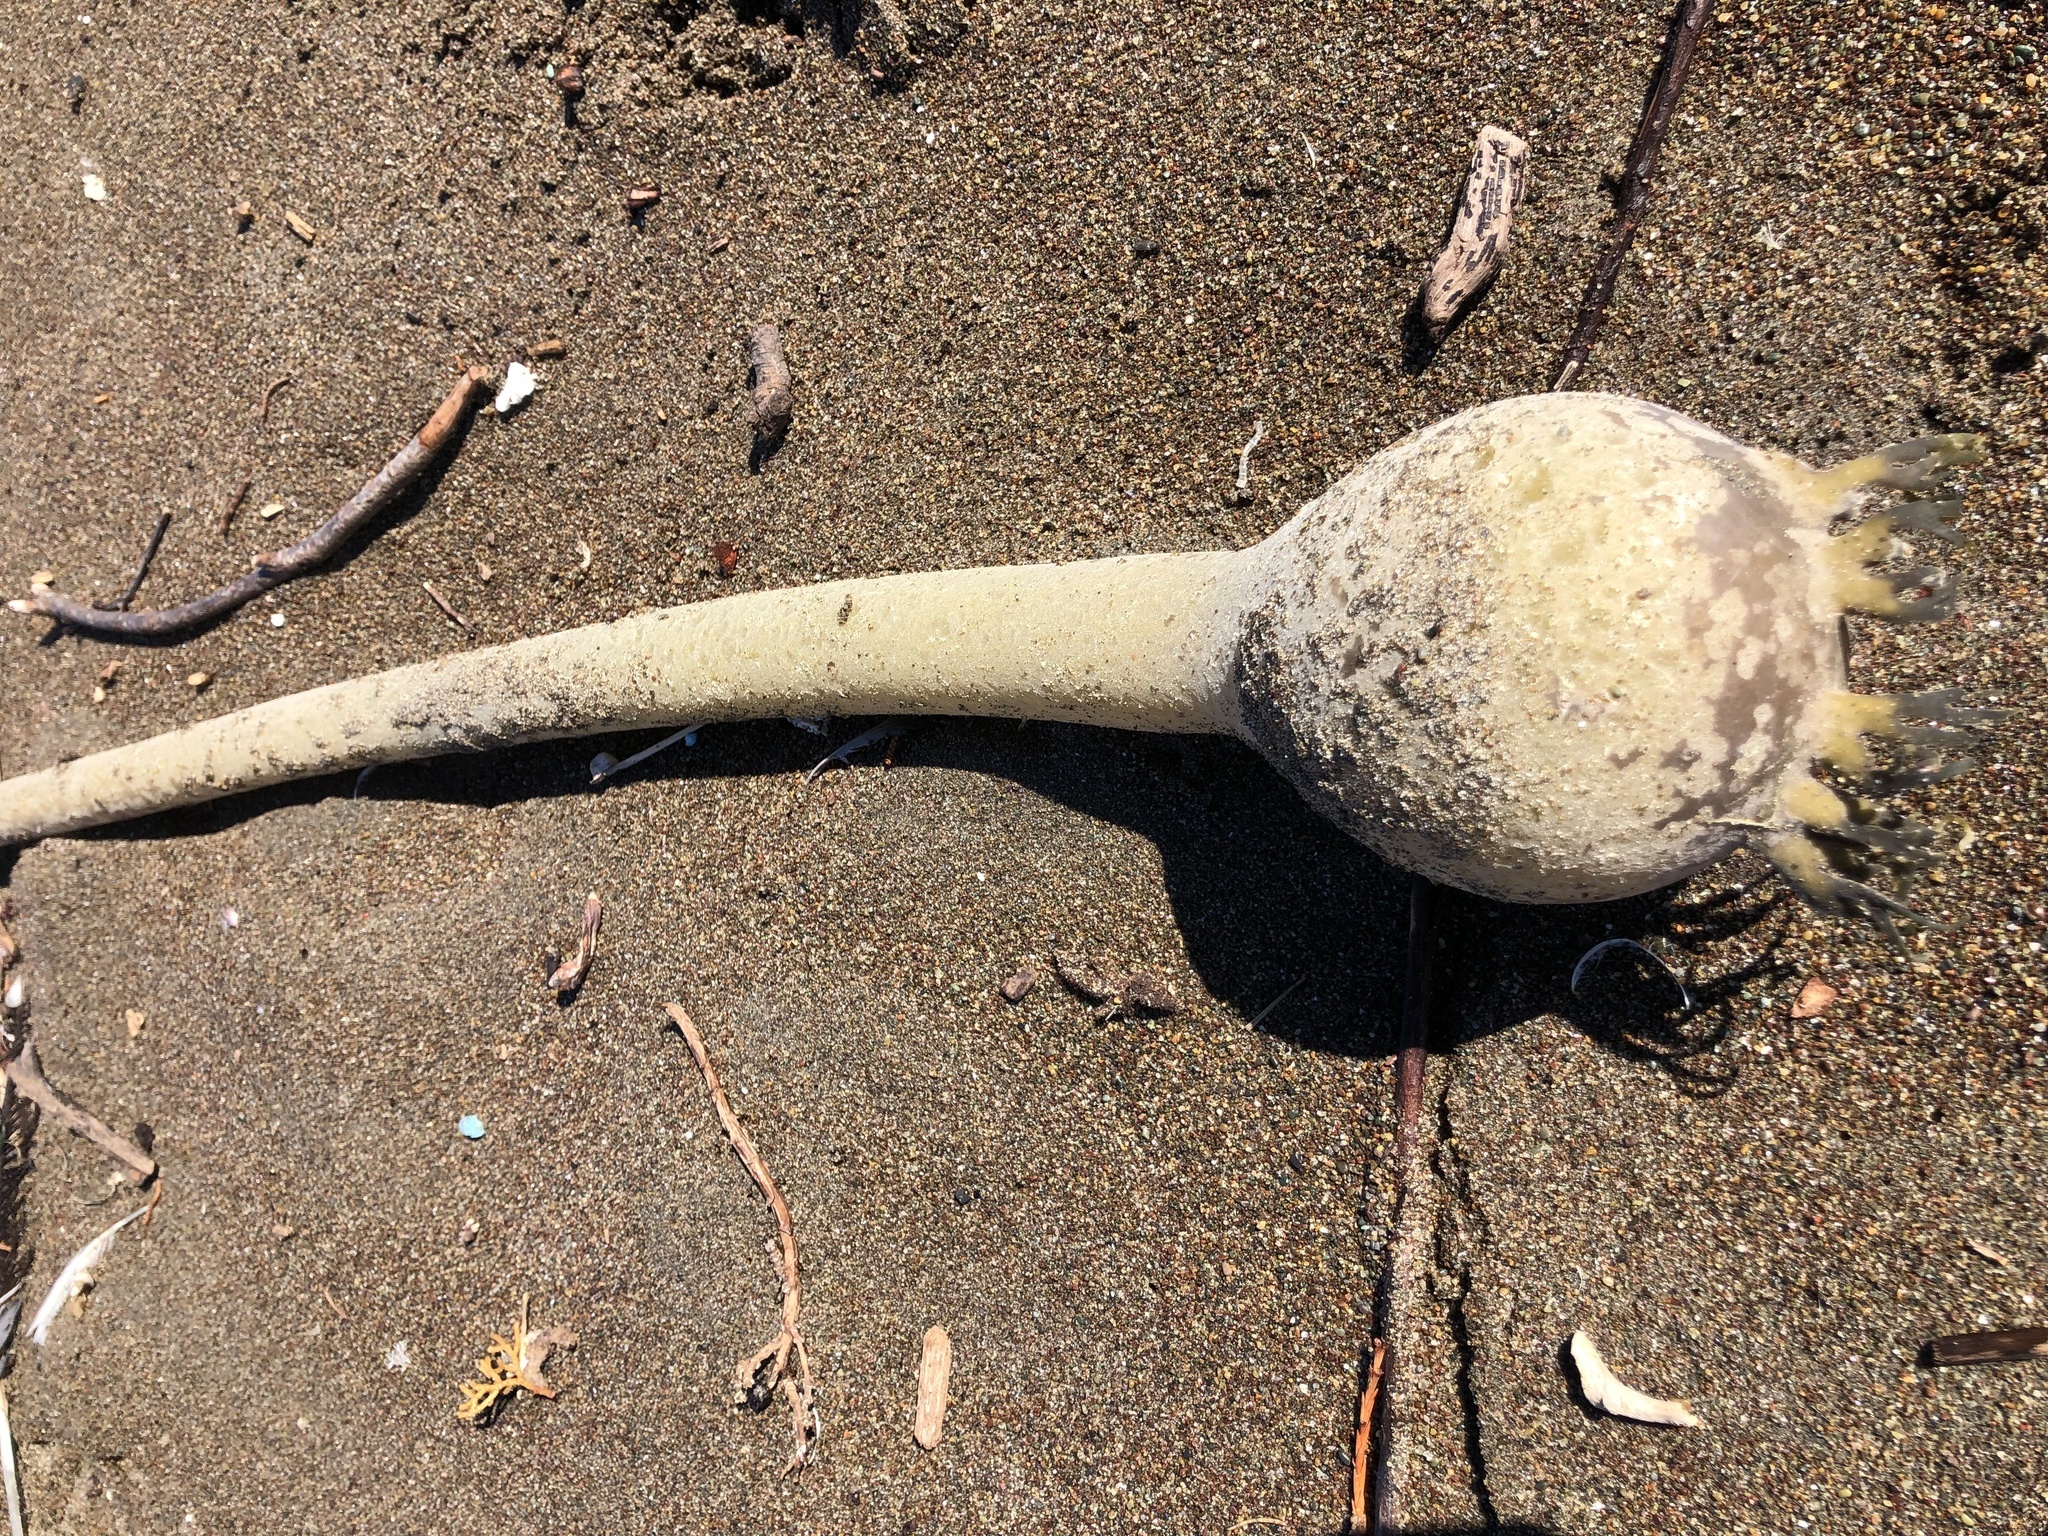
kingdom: Chromista
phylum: Ochrophyta
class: Phaeophyceae
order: Laminariales
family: Laminariaceae
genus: Nereocystis
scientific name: Nereocystis luetkeana
